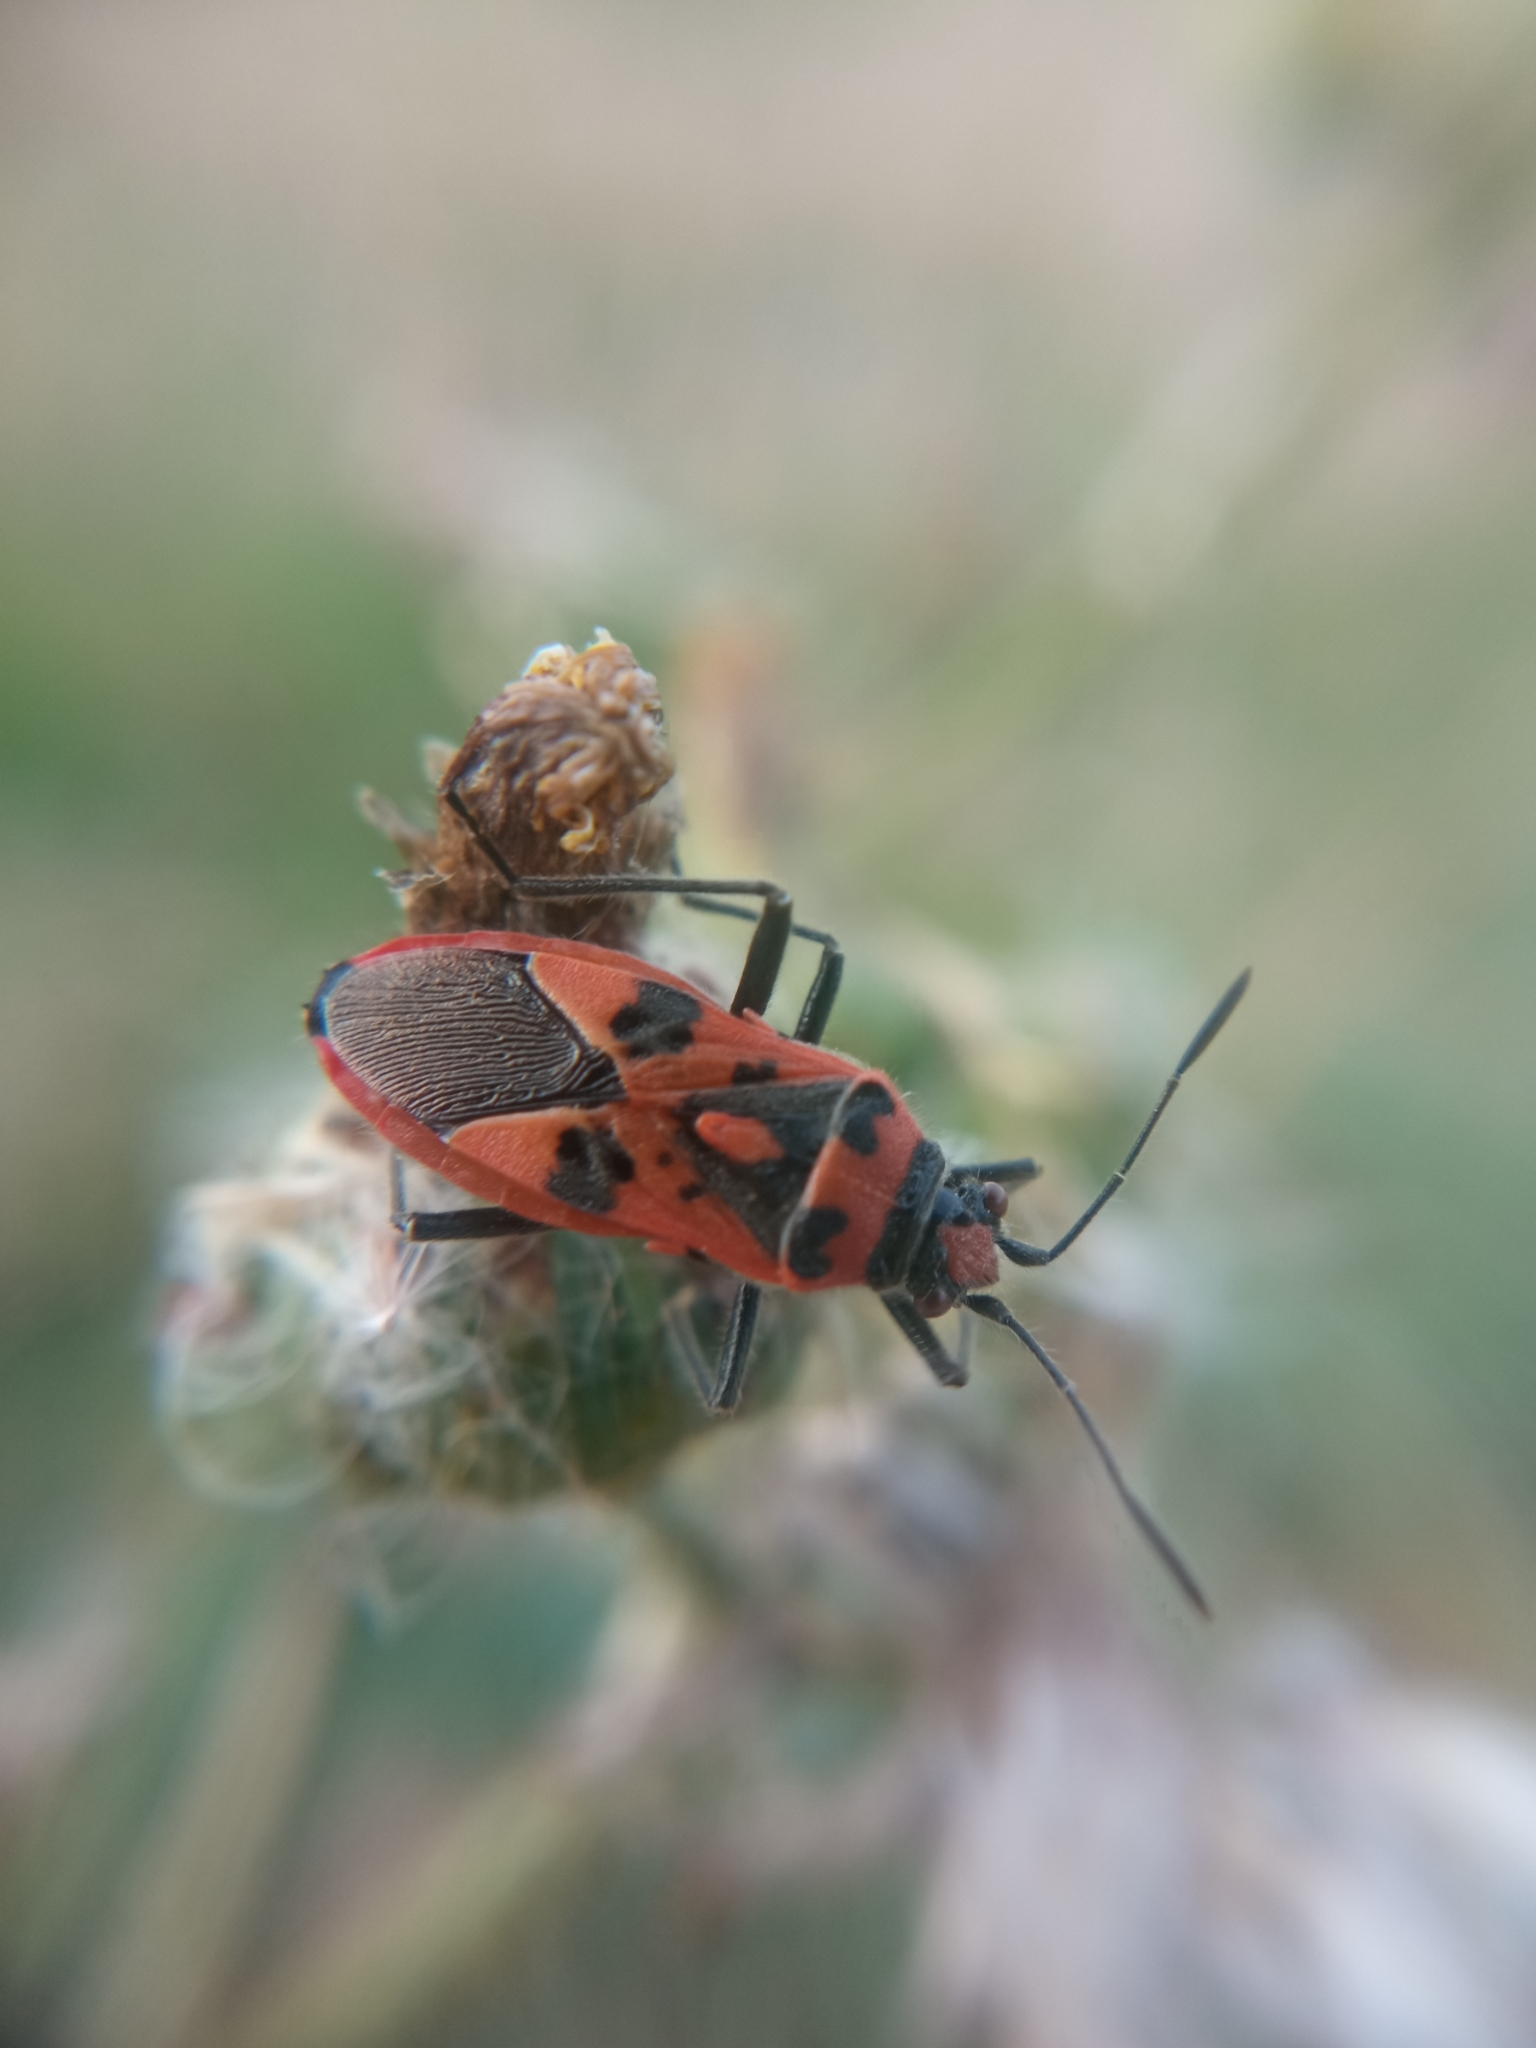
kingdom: Animalia
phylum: Arthropoda
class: Insecta
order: Hemiptera
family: Rhopalidae
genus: Corizus
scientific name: Corizus hyoscyami
